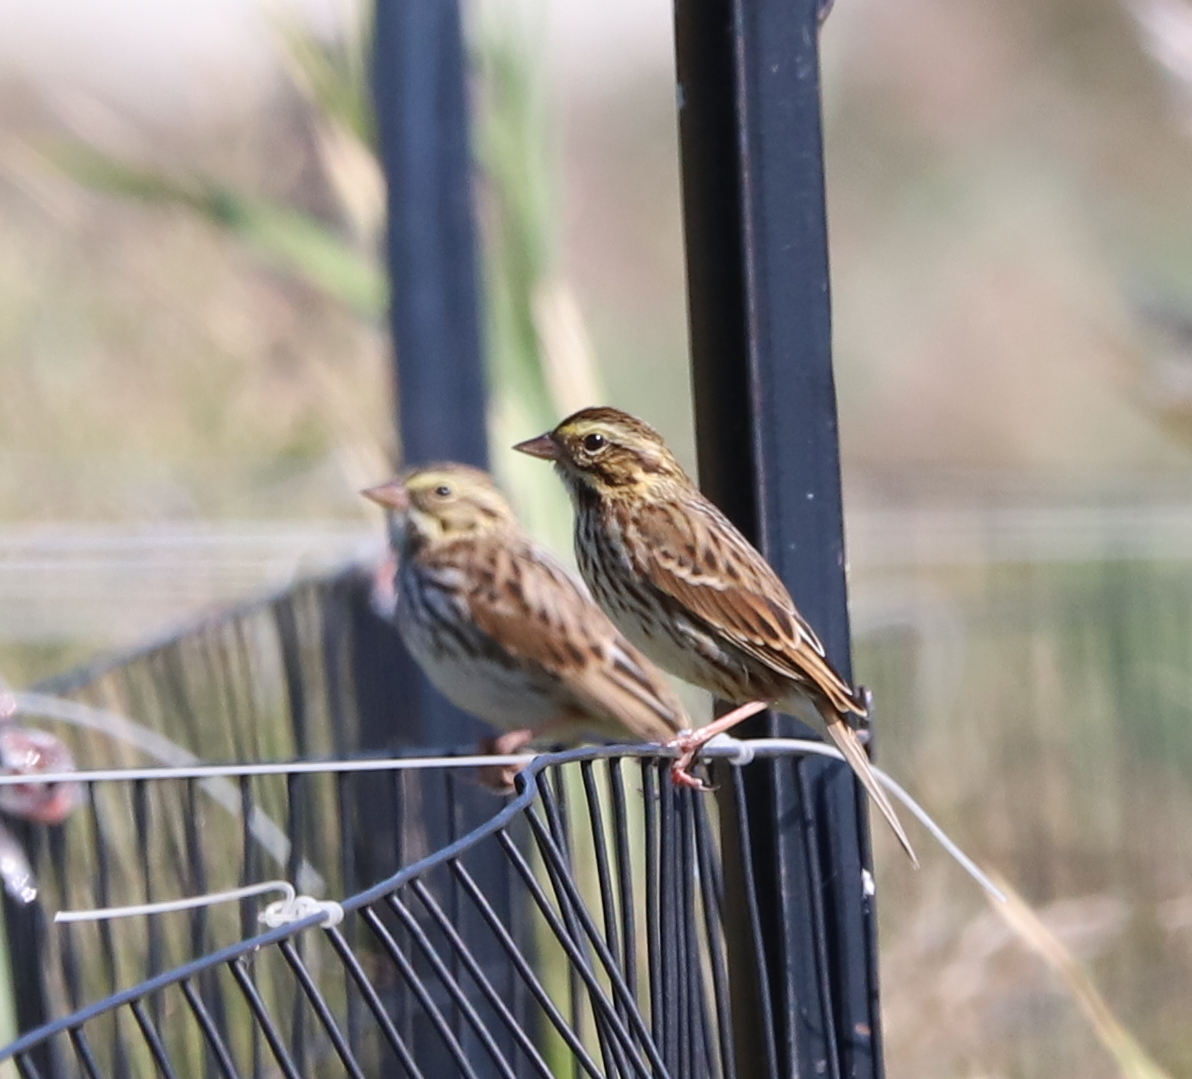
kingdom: Animalia
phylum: Chordata
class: Aves
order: Passeriformes
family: Passerellidae
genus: Passerculus
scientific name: Passerculus sandwichensis
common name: Savannah sparrow
